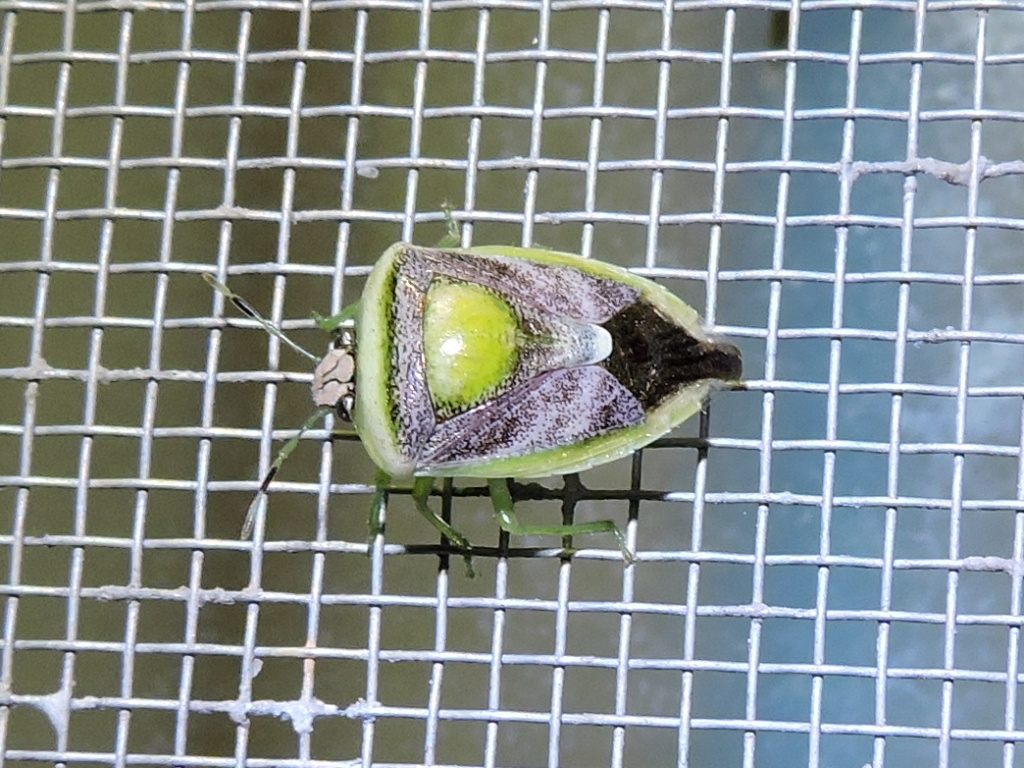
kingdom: Animalia
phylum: Arthropoda
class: Insecta
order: Hemiptera
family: Pentatomidae
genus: Kermana
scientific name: Kermana imbuta
